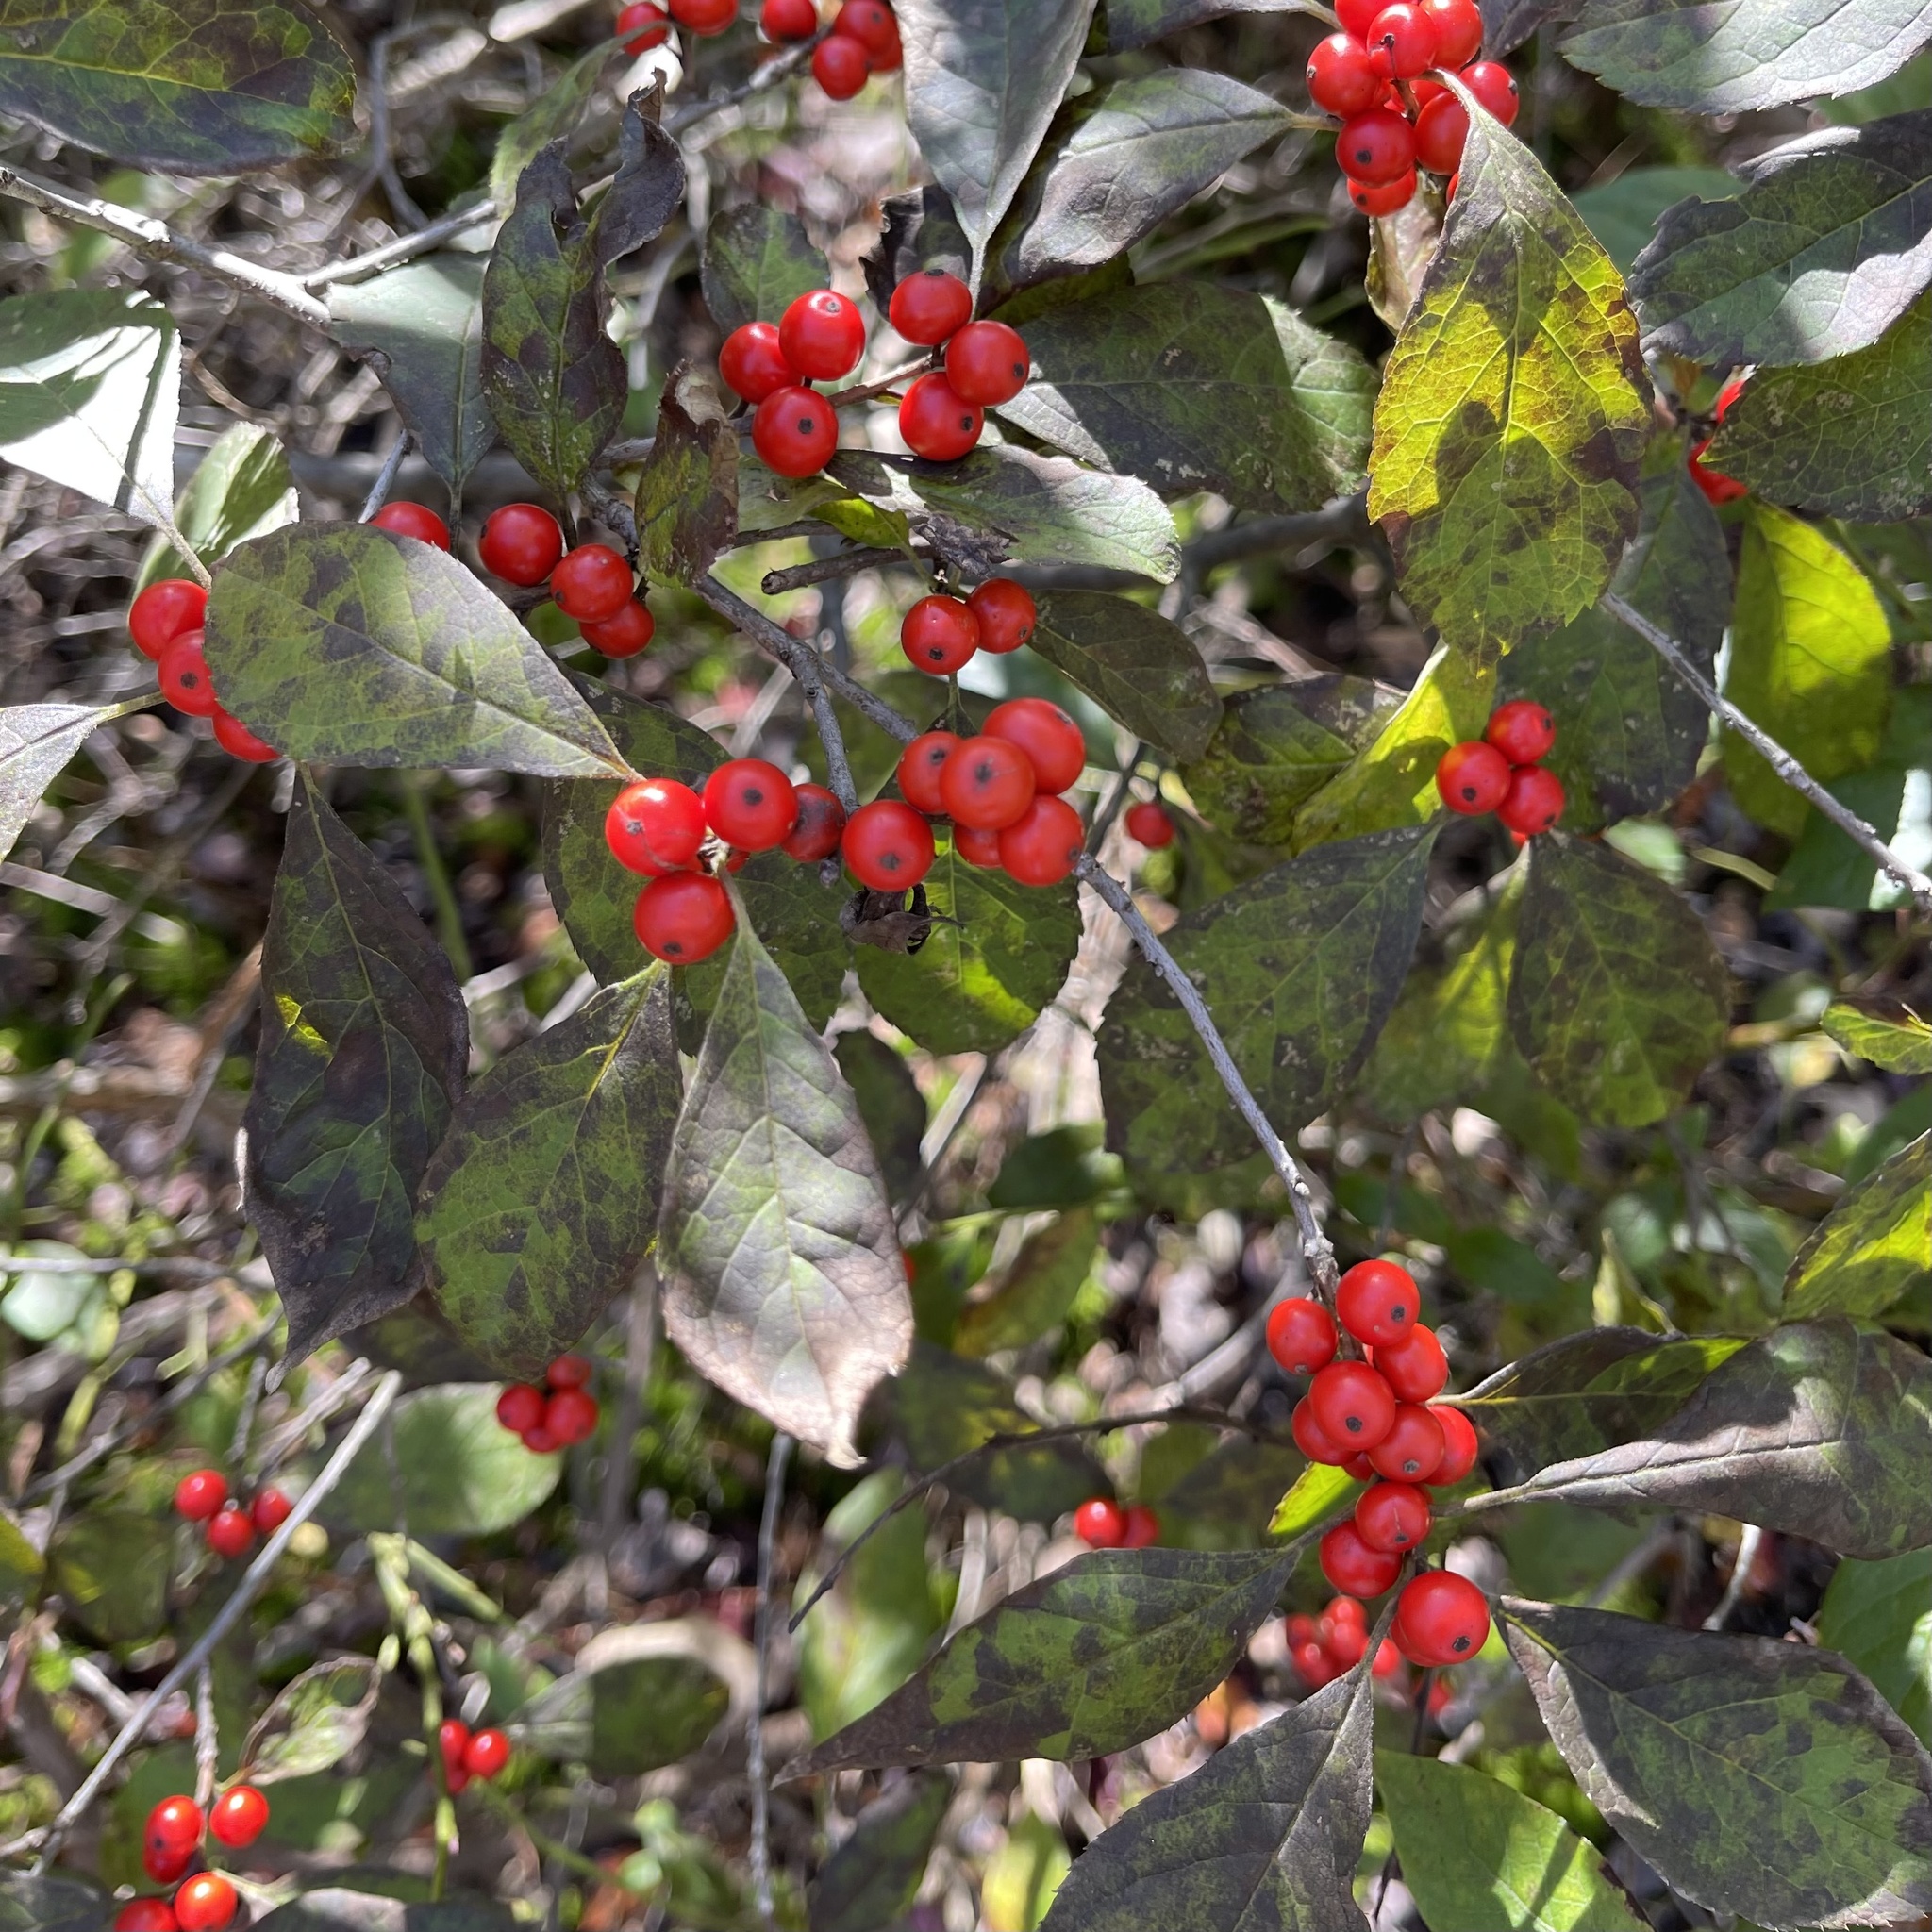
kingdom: Plantae
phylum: Tracheophyta
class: Magnoliopsida
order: Aquifoliales
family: Aquifoliaceae
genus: Ilex
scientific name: Ilex verticillata
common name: Virginia winterberry
